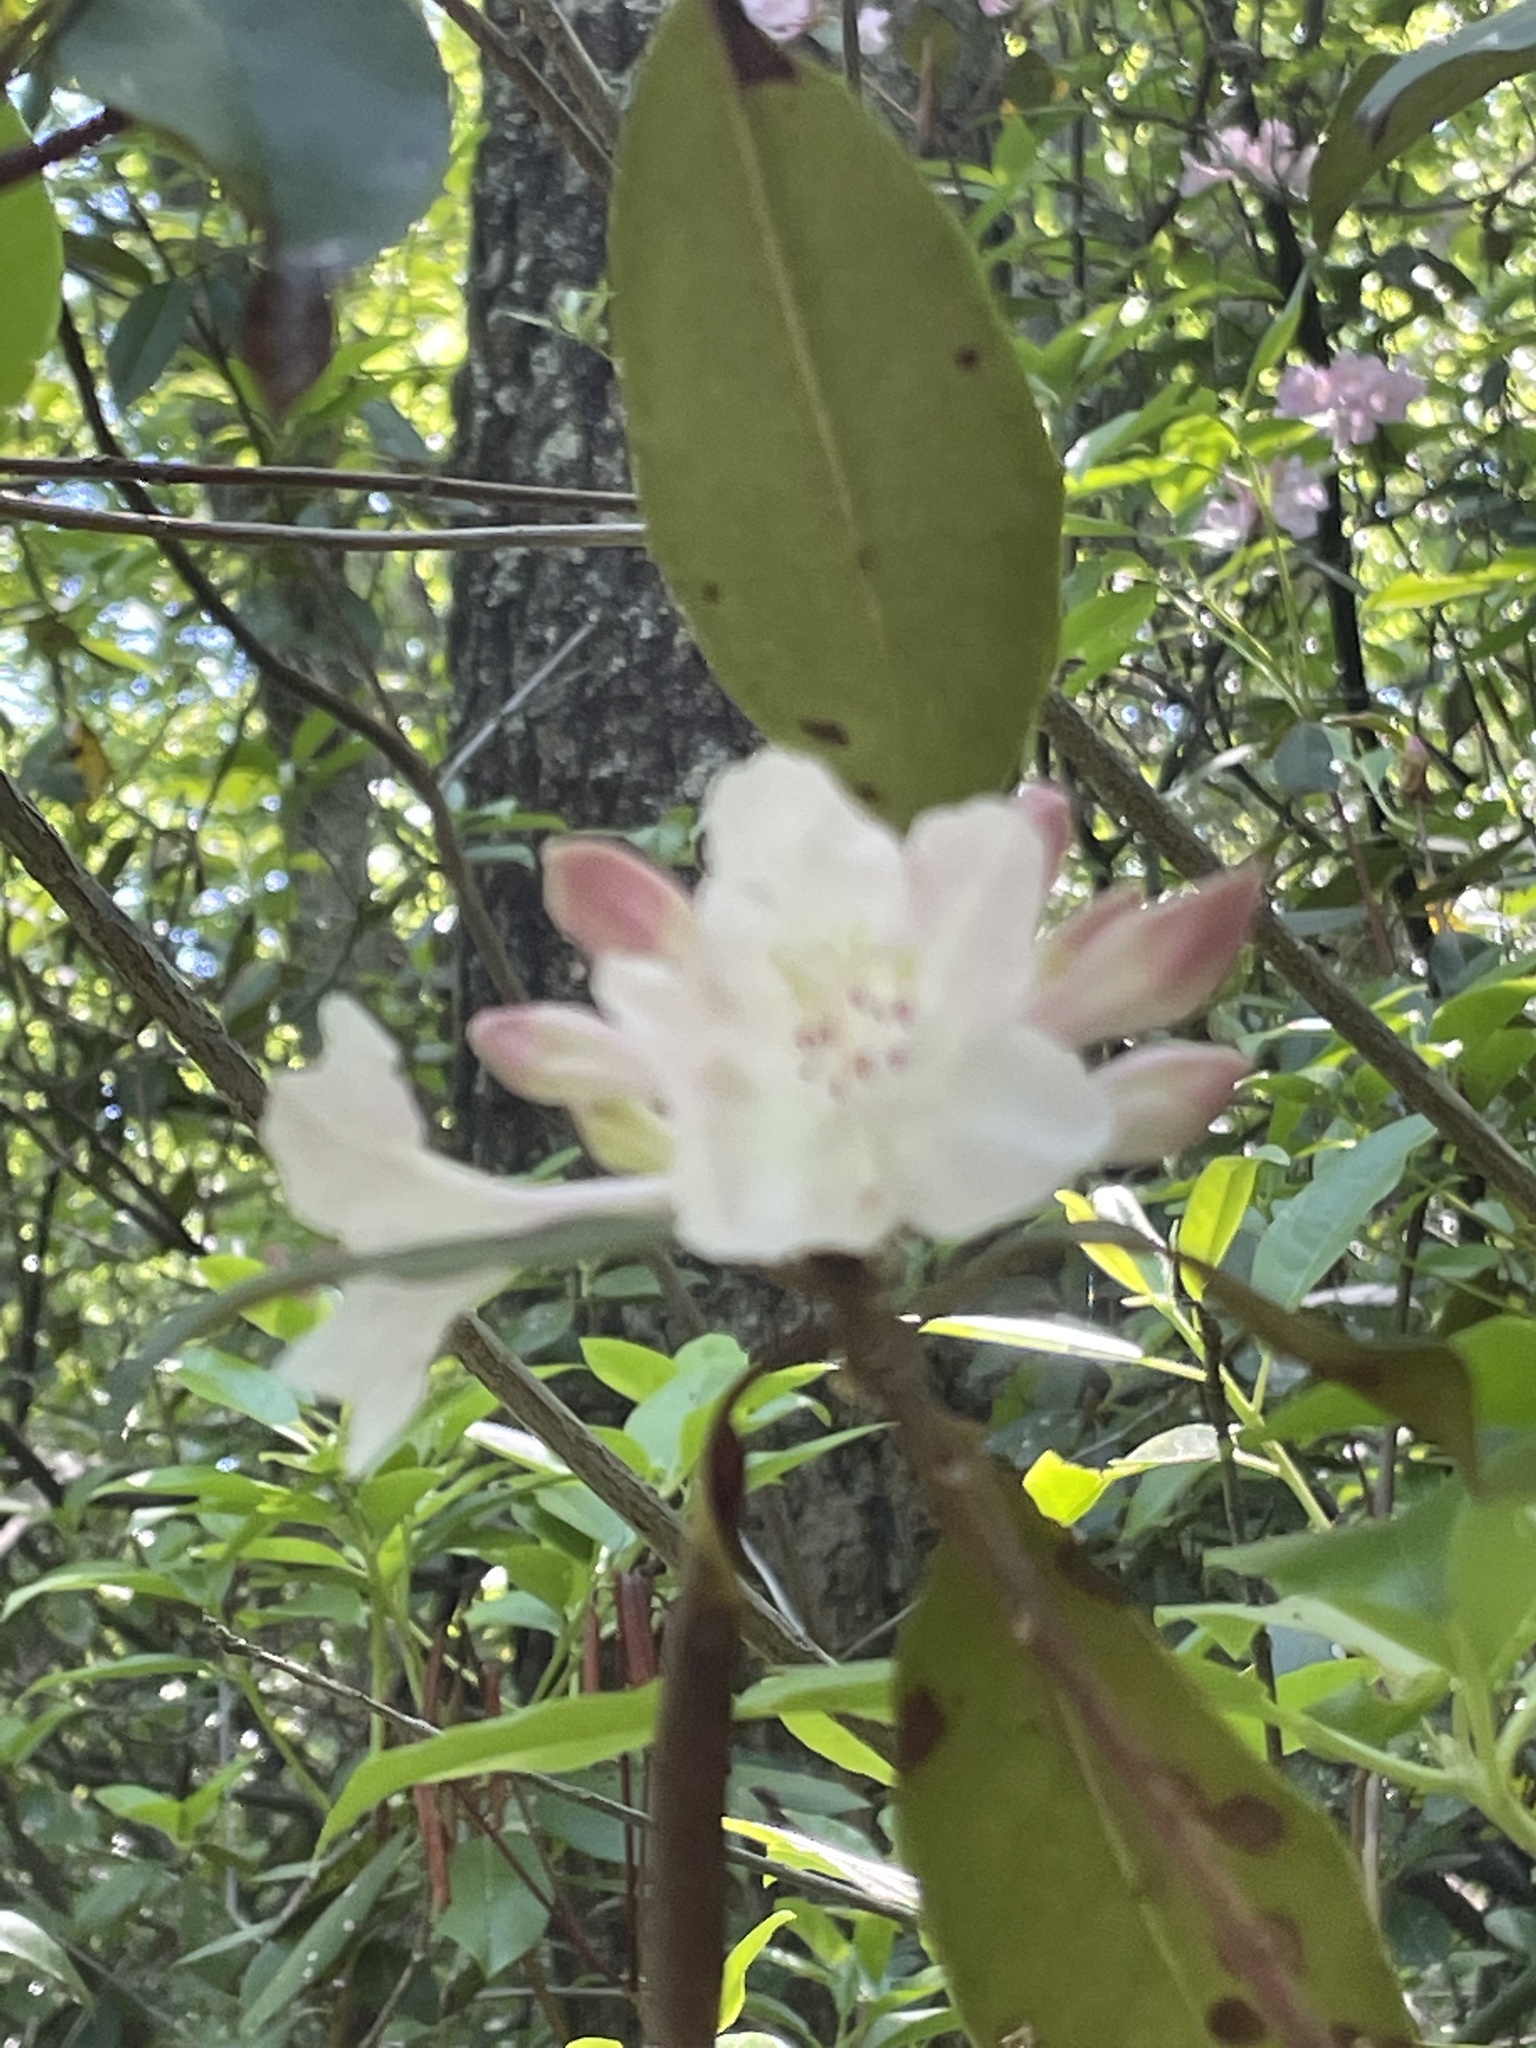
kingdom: Plantae
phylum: Tracheophyta
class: Magnoliopsida
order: Ericales
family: Ericaceae
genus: Rhododendron
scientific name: Rhododendron minus
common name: Piedmont rhododendron
